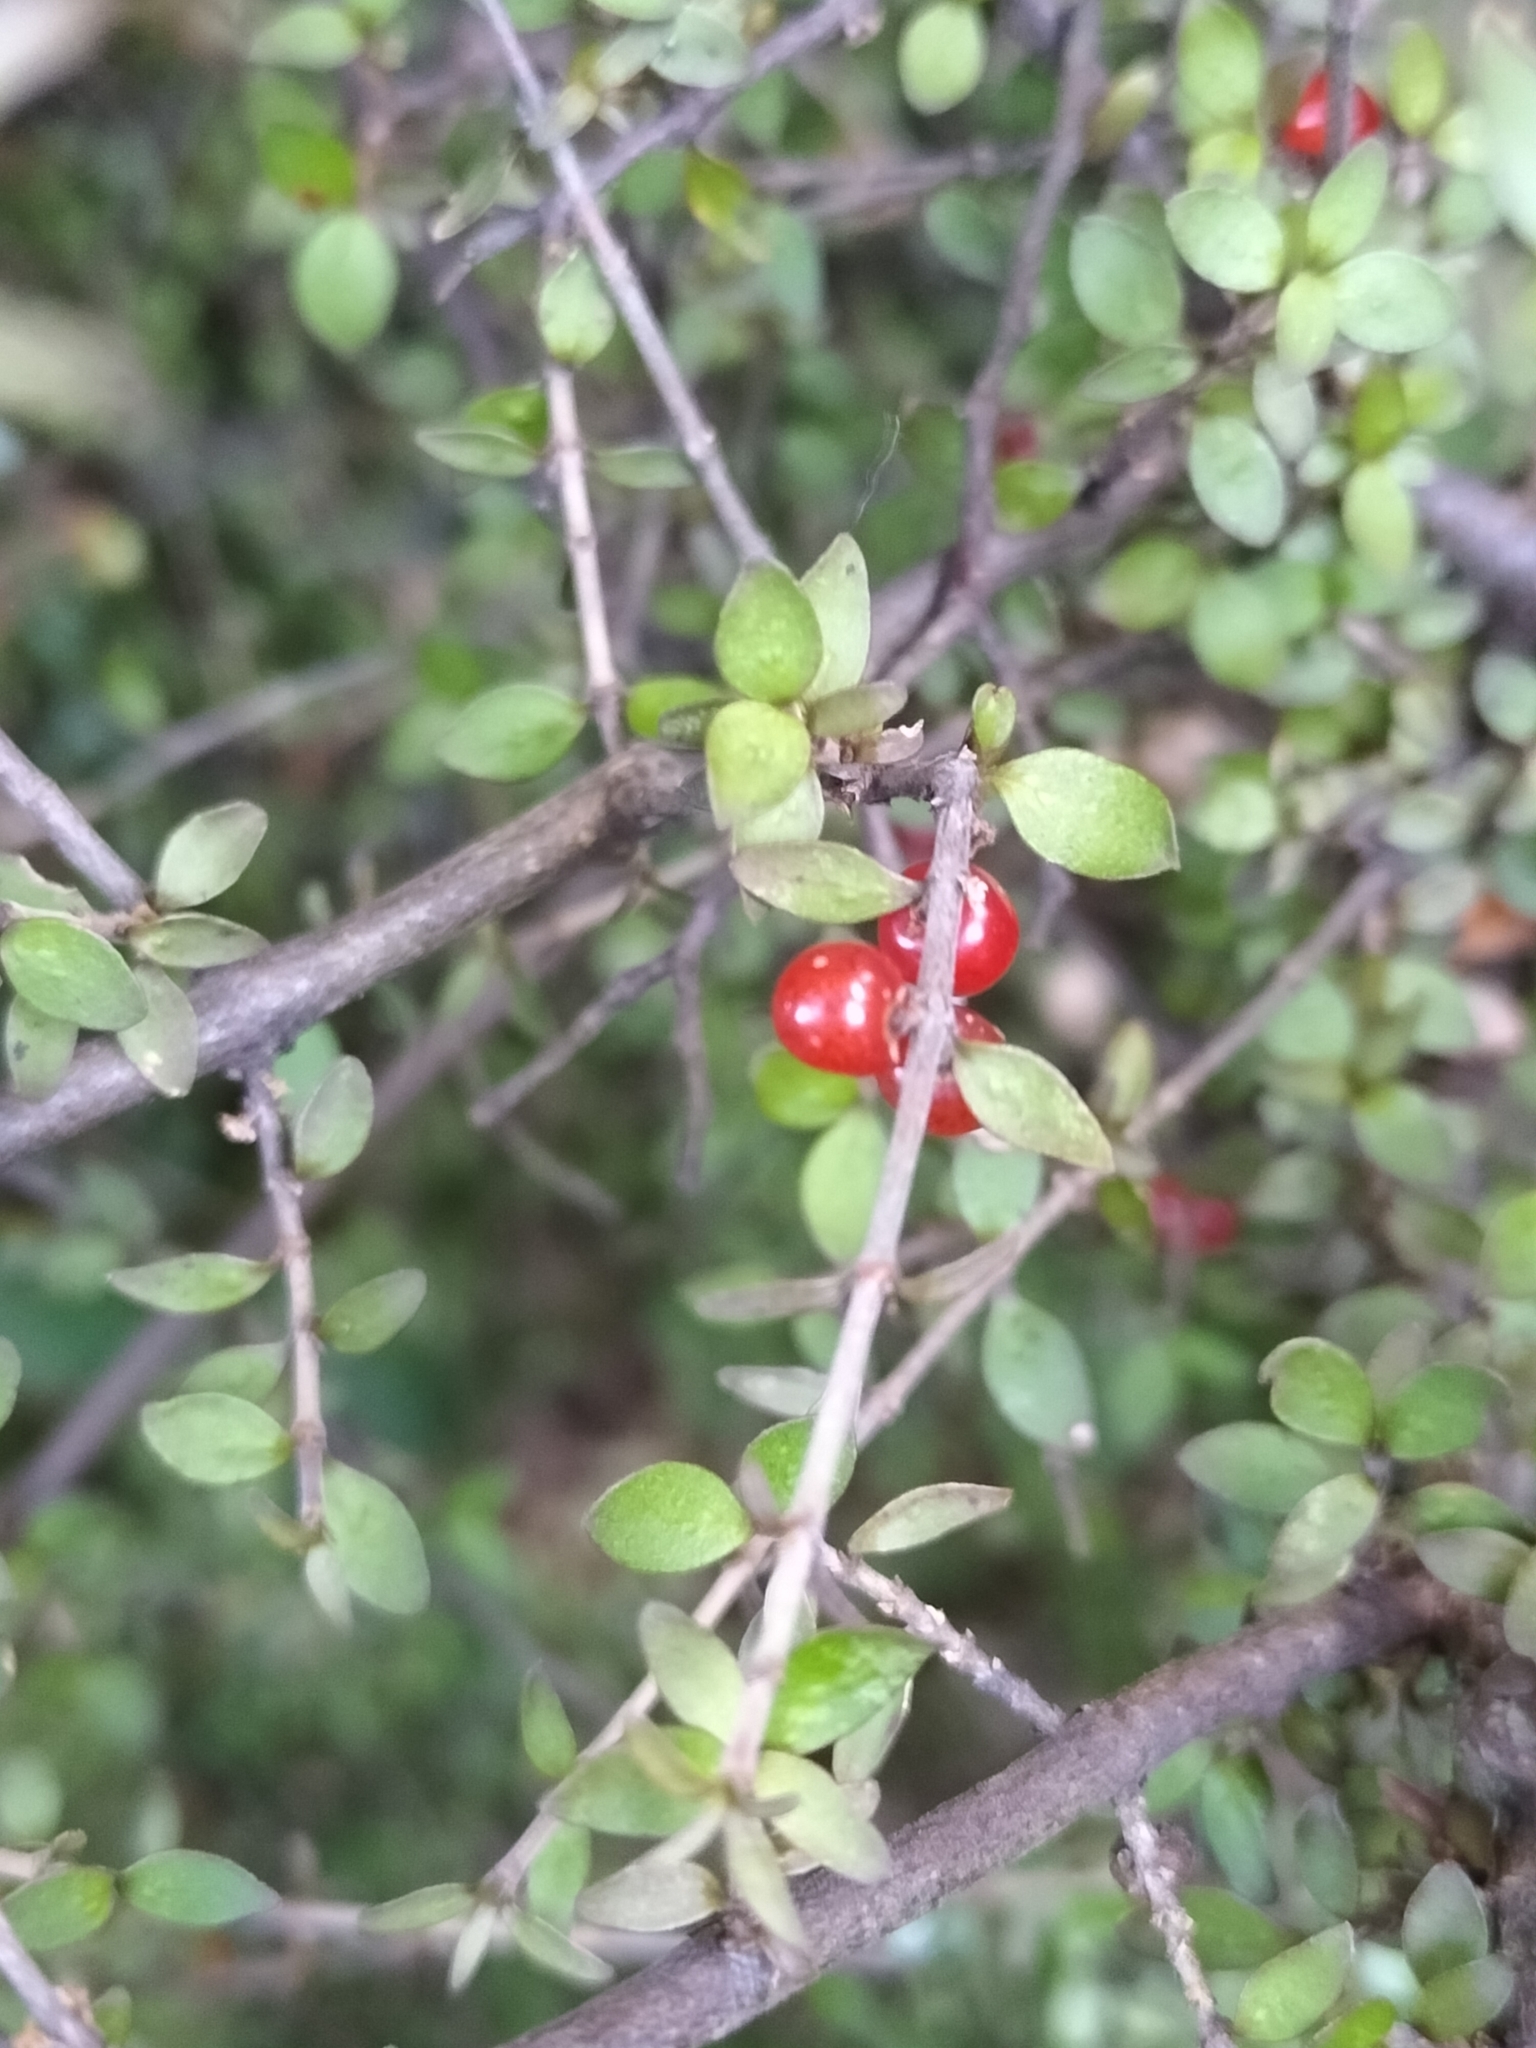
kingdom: Plantae
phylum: Tracheophyta
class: Magnoliopsida
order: Gentianales
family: Rubiaceae
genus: Coprosma
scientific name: Coprosma rhamnoides
